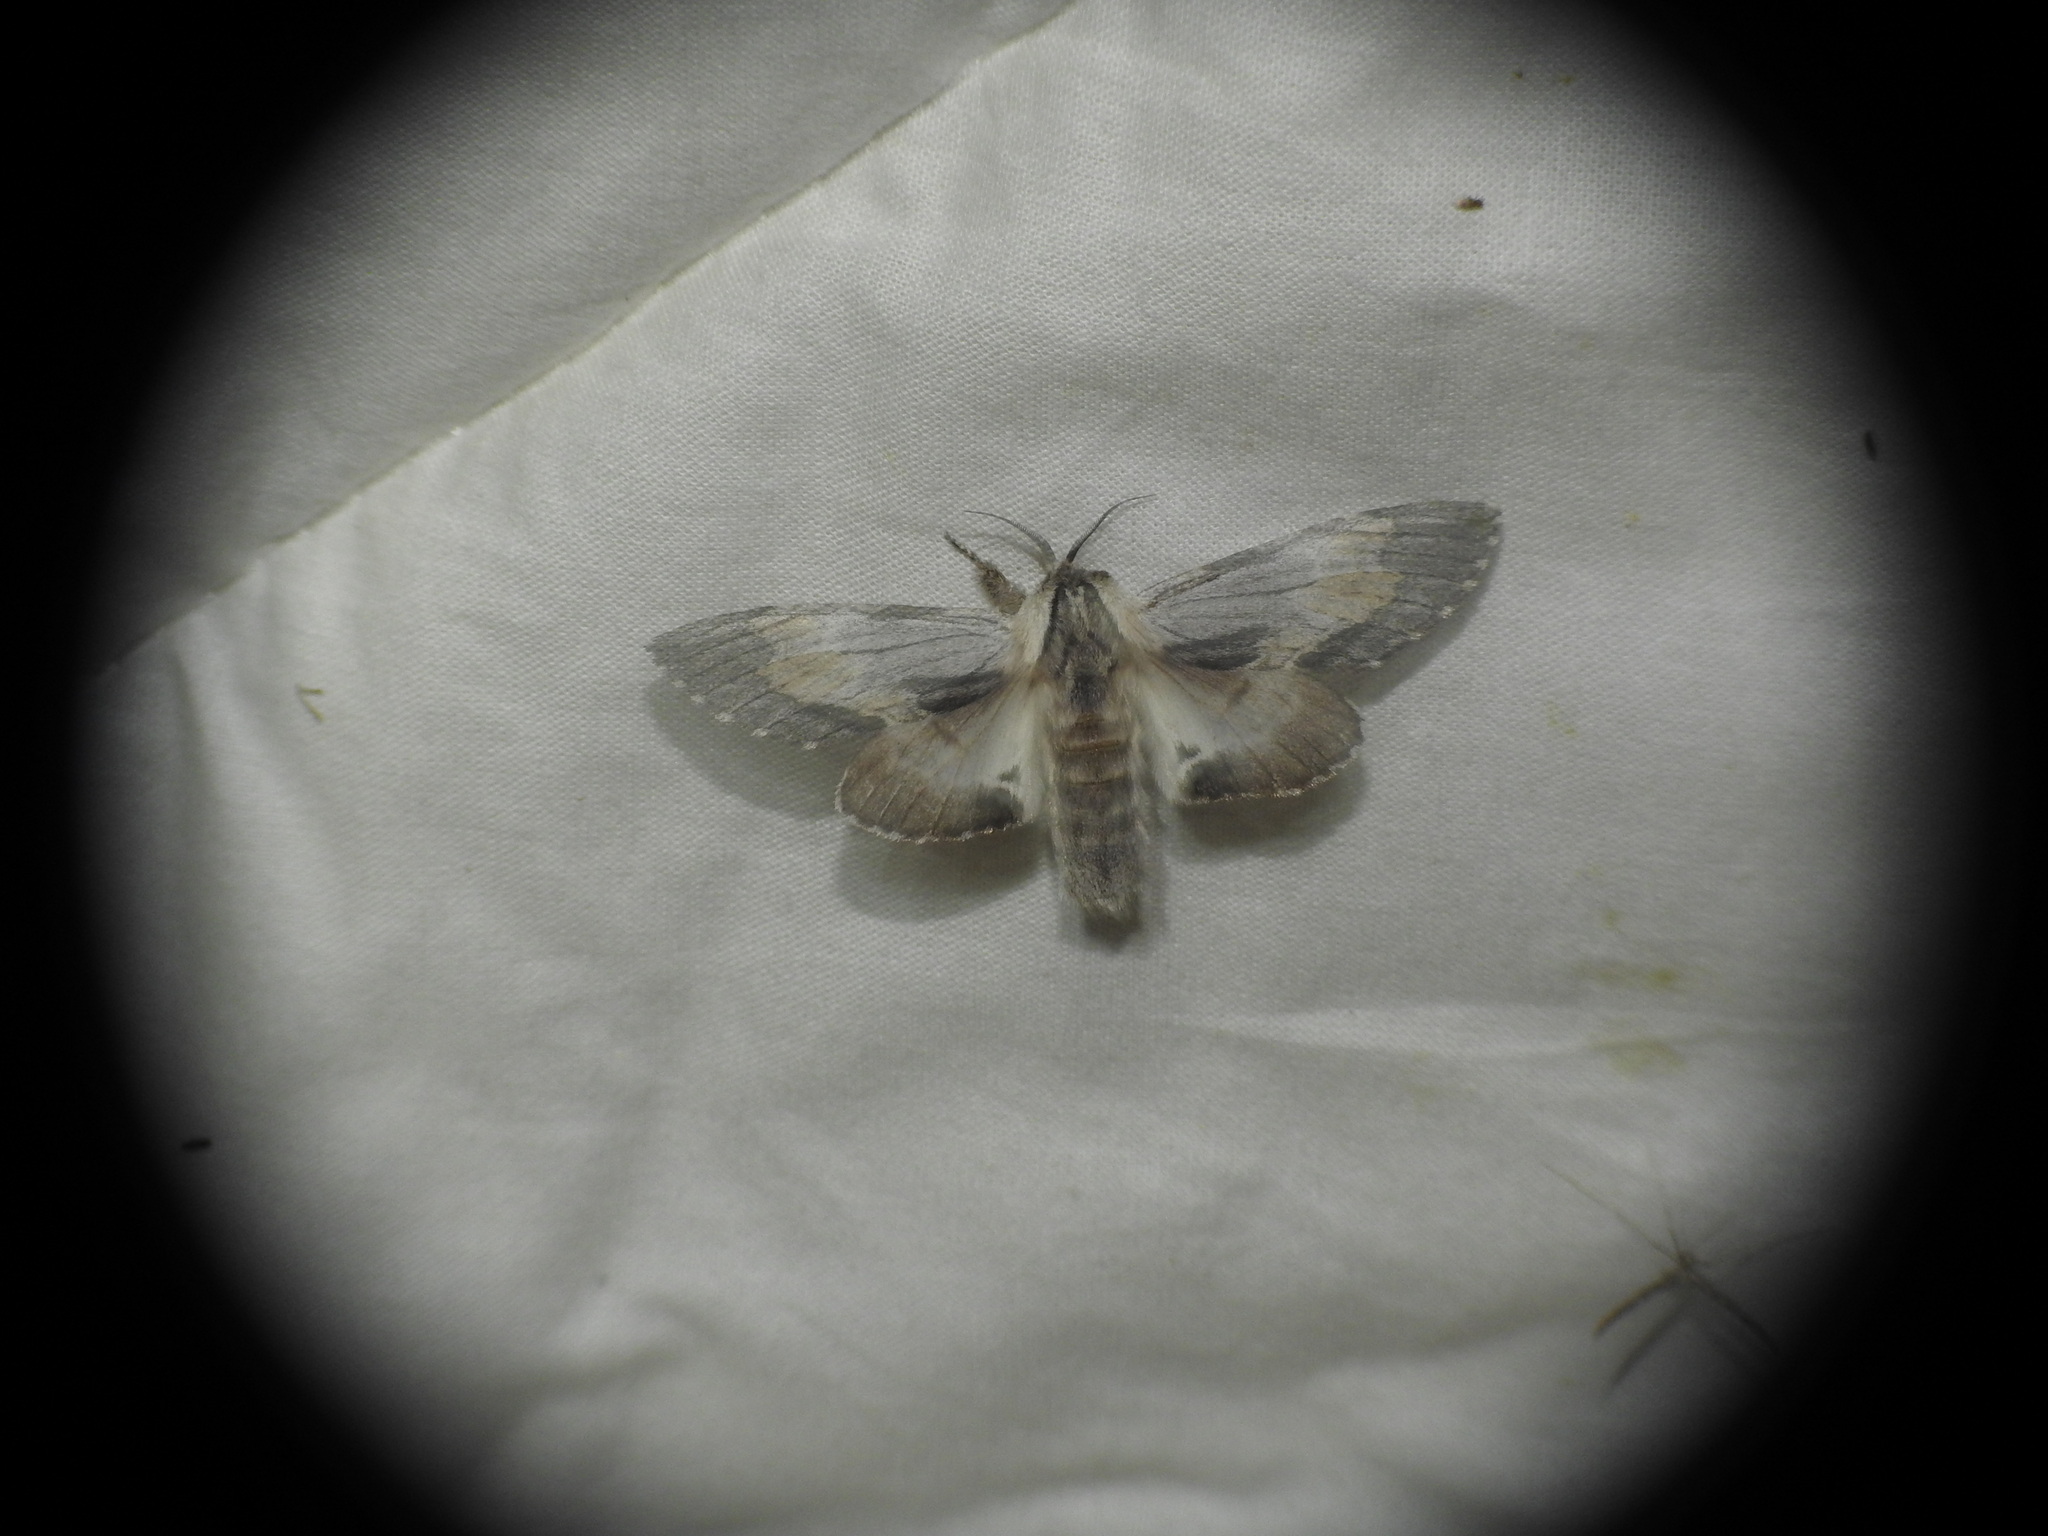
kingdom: Animalia
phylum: Arthropoda
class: Insecta
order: Lepidoptera
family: Notodontidae
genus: Harpyia
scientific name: Harpyia milhauseri
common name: Tawny prominent
